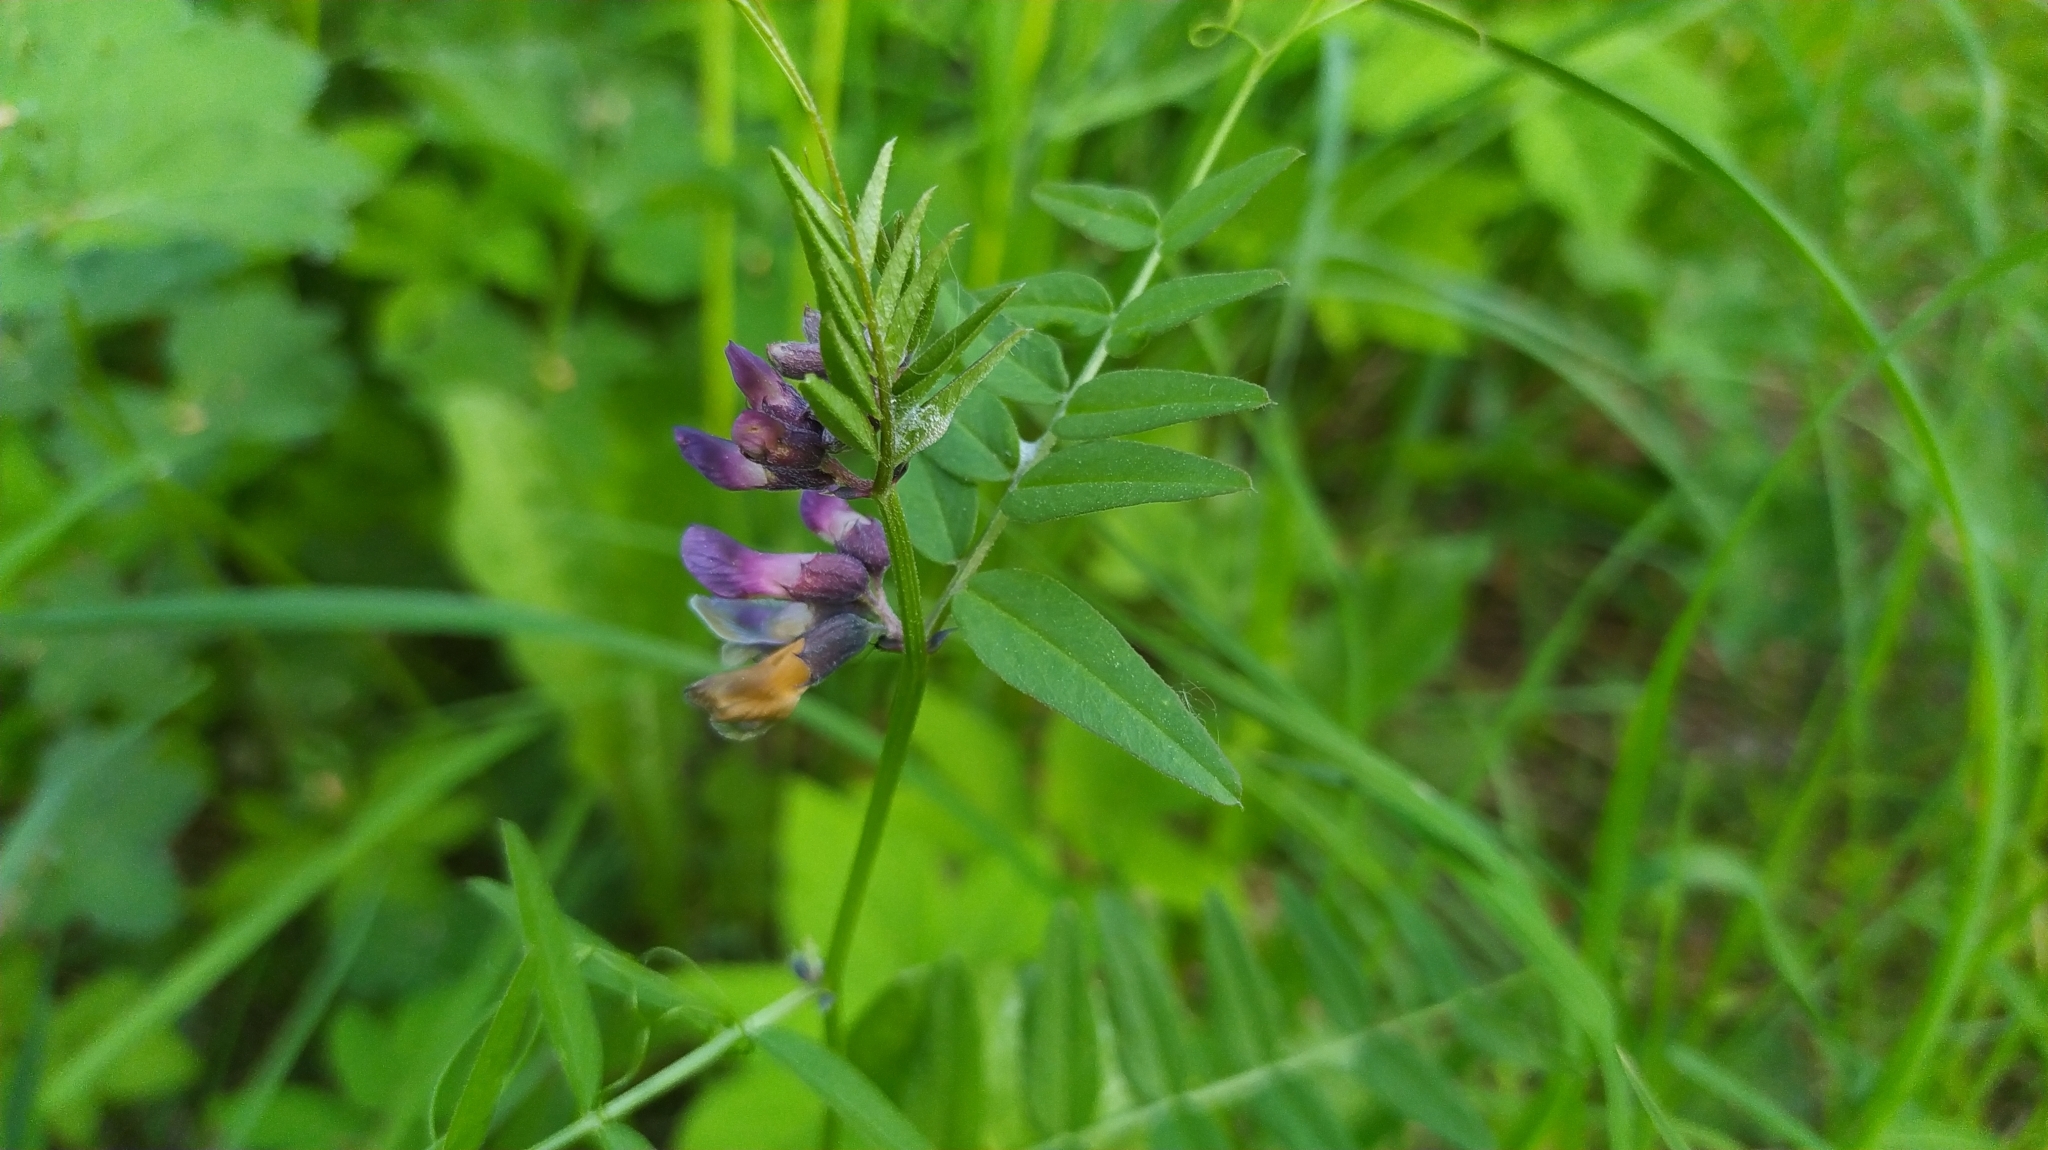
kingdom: Plantae
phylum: Tracheophyta
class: Magnoliopsida
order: Fabales
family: Fabaceae
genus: Vicia
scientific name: Vicia sepium
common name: Bush vetch
